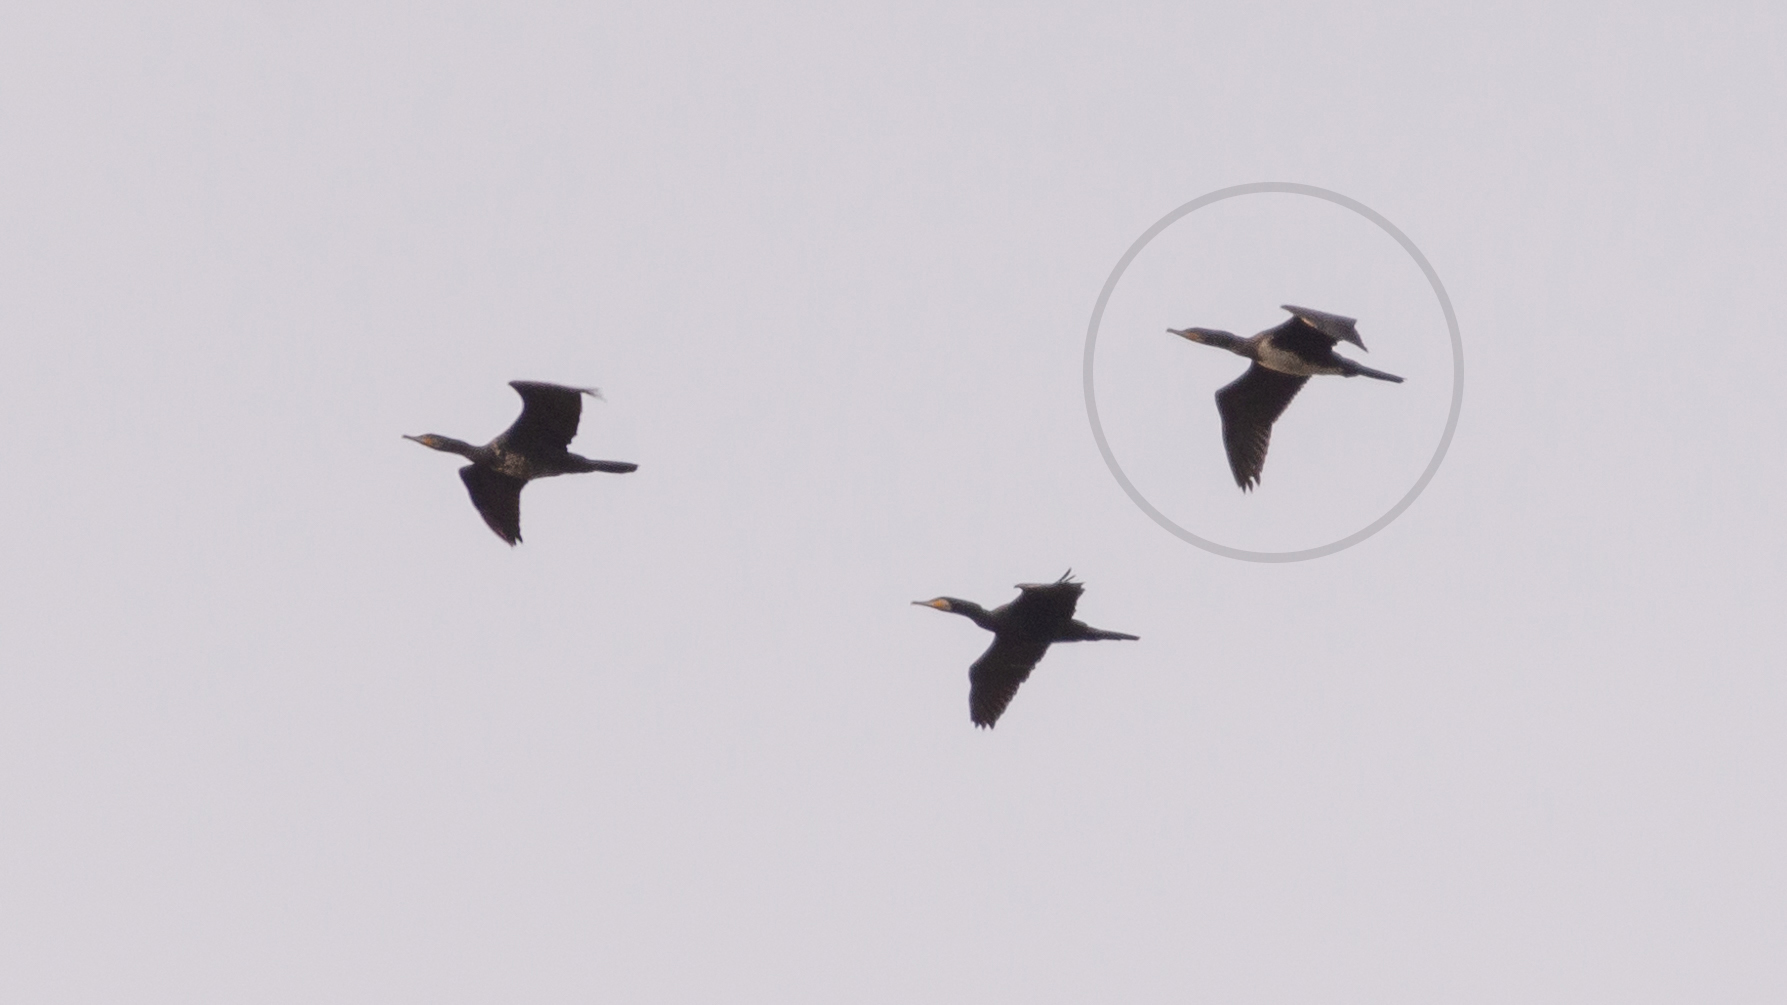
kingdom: Animalia
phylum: Chordata
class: Aves
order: Suliformes
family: Phalacrocoracidae
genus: Phalacrocorax
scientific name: Phalacrocorax carbo
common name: Great cormorant
